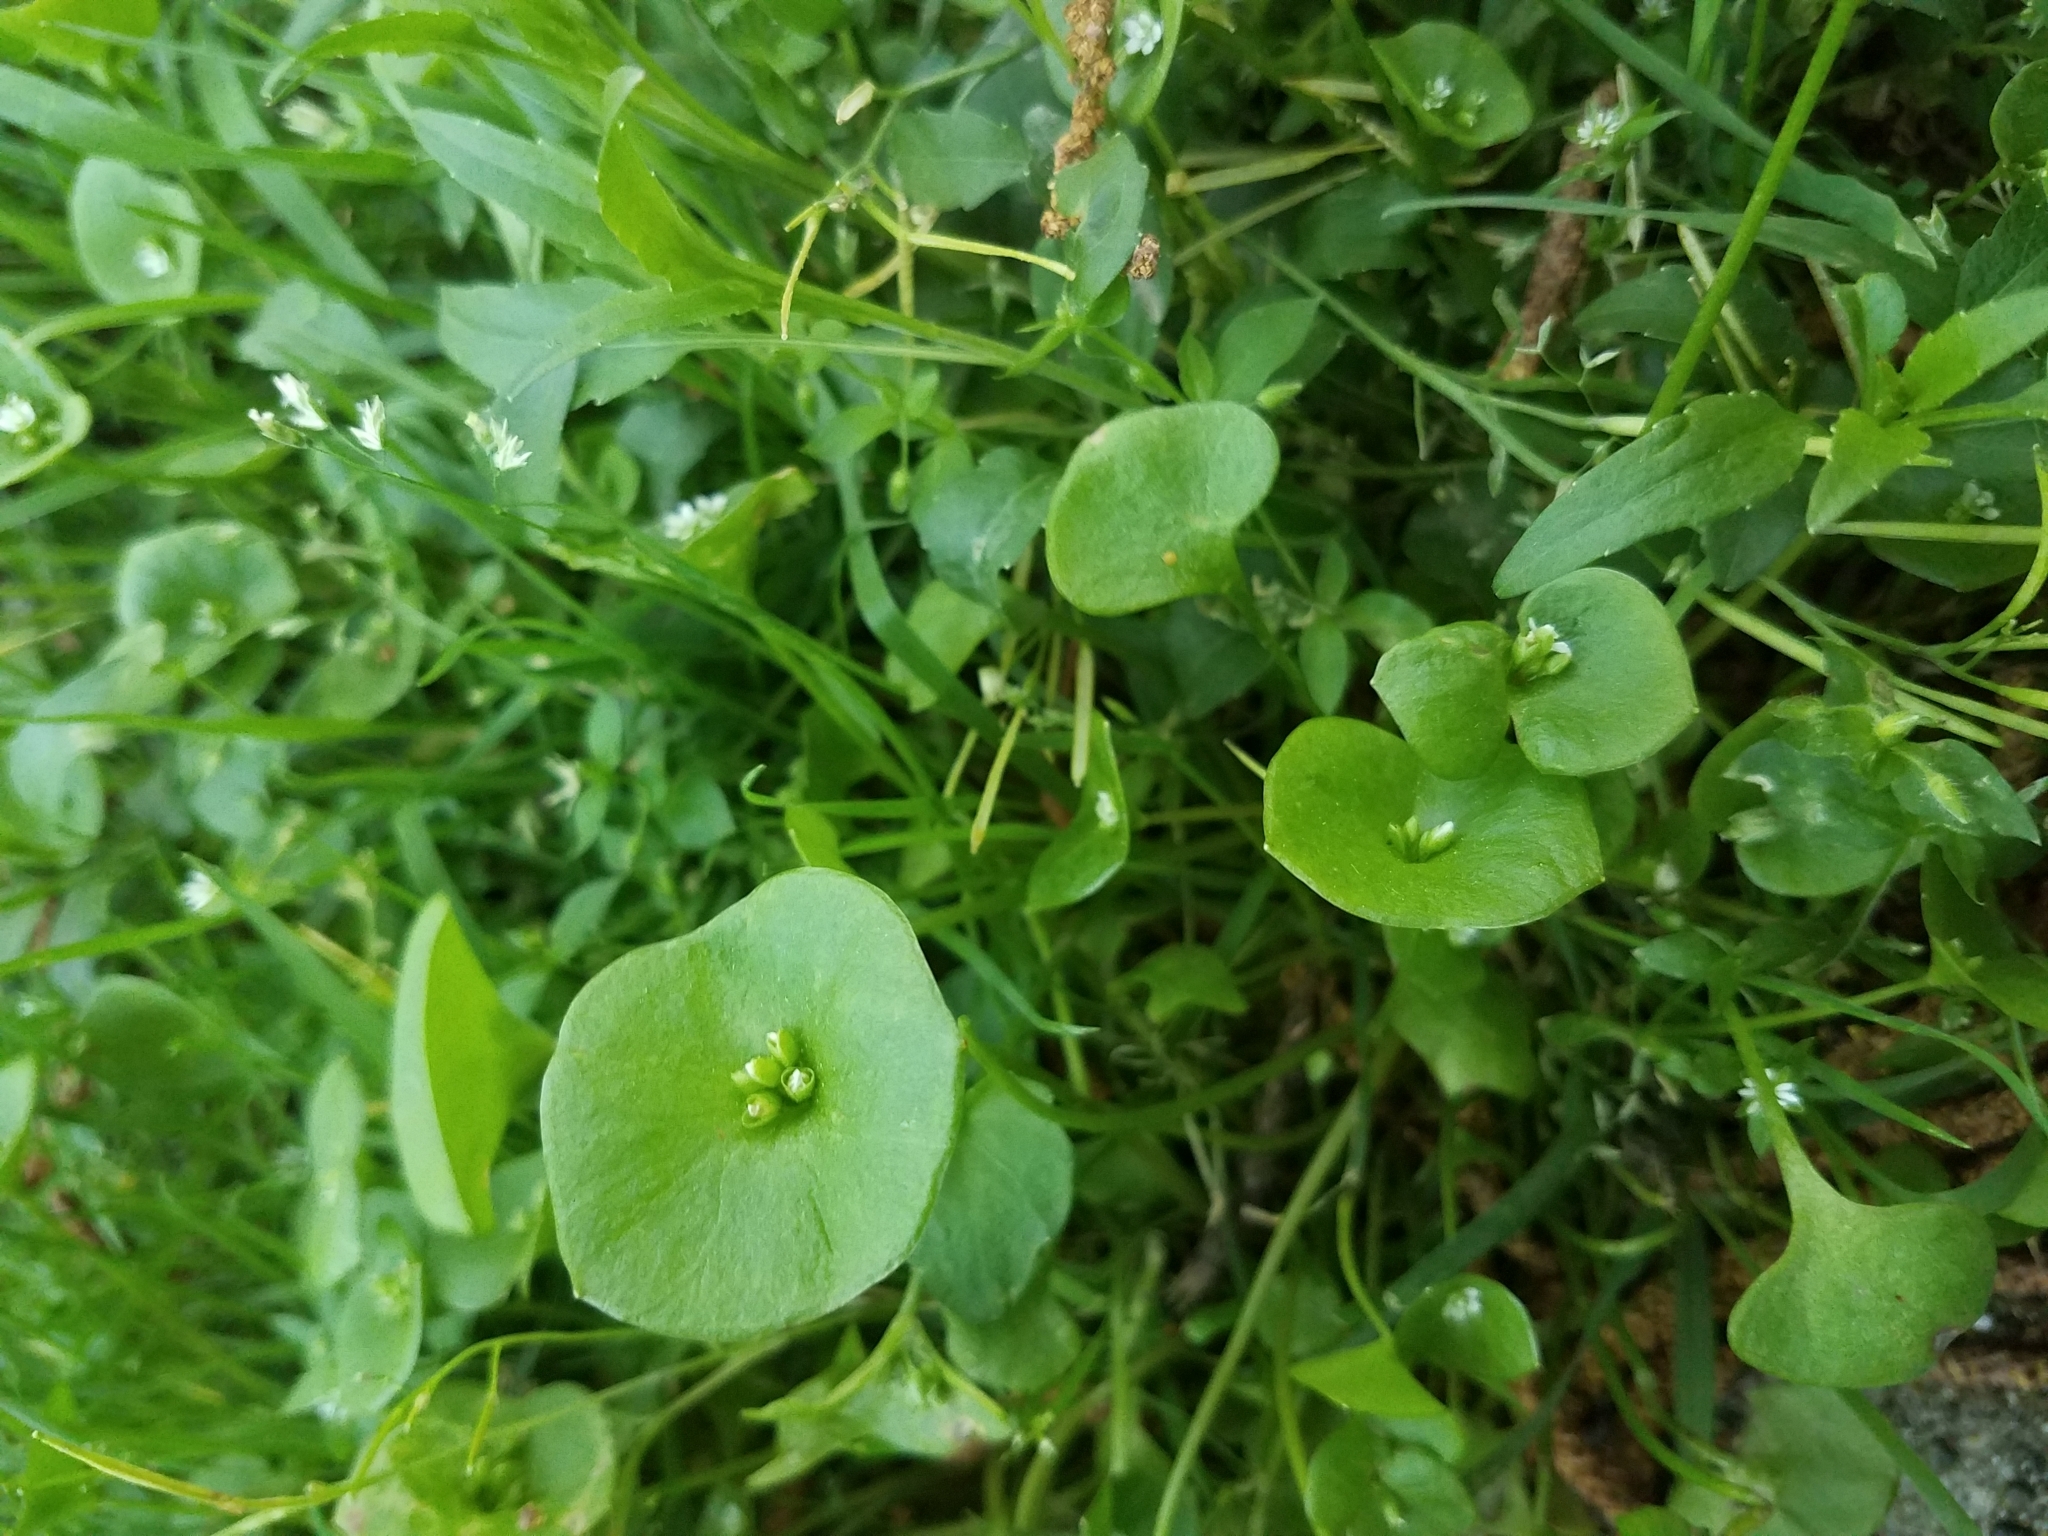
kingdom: Plantae
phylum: Tracheophyta
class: Magnoliopsida
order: Caryophyllales
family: Montiaceae
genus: Claytonia
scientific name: Claytonia perfoliata
